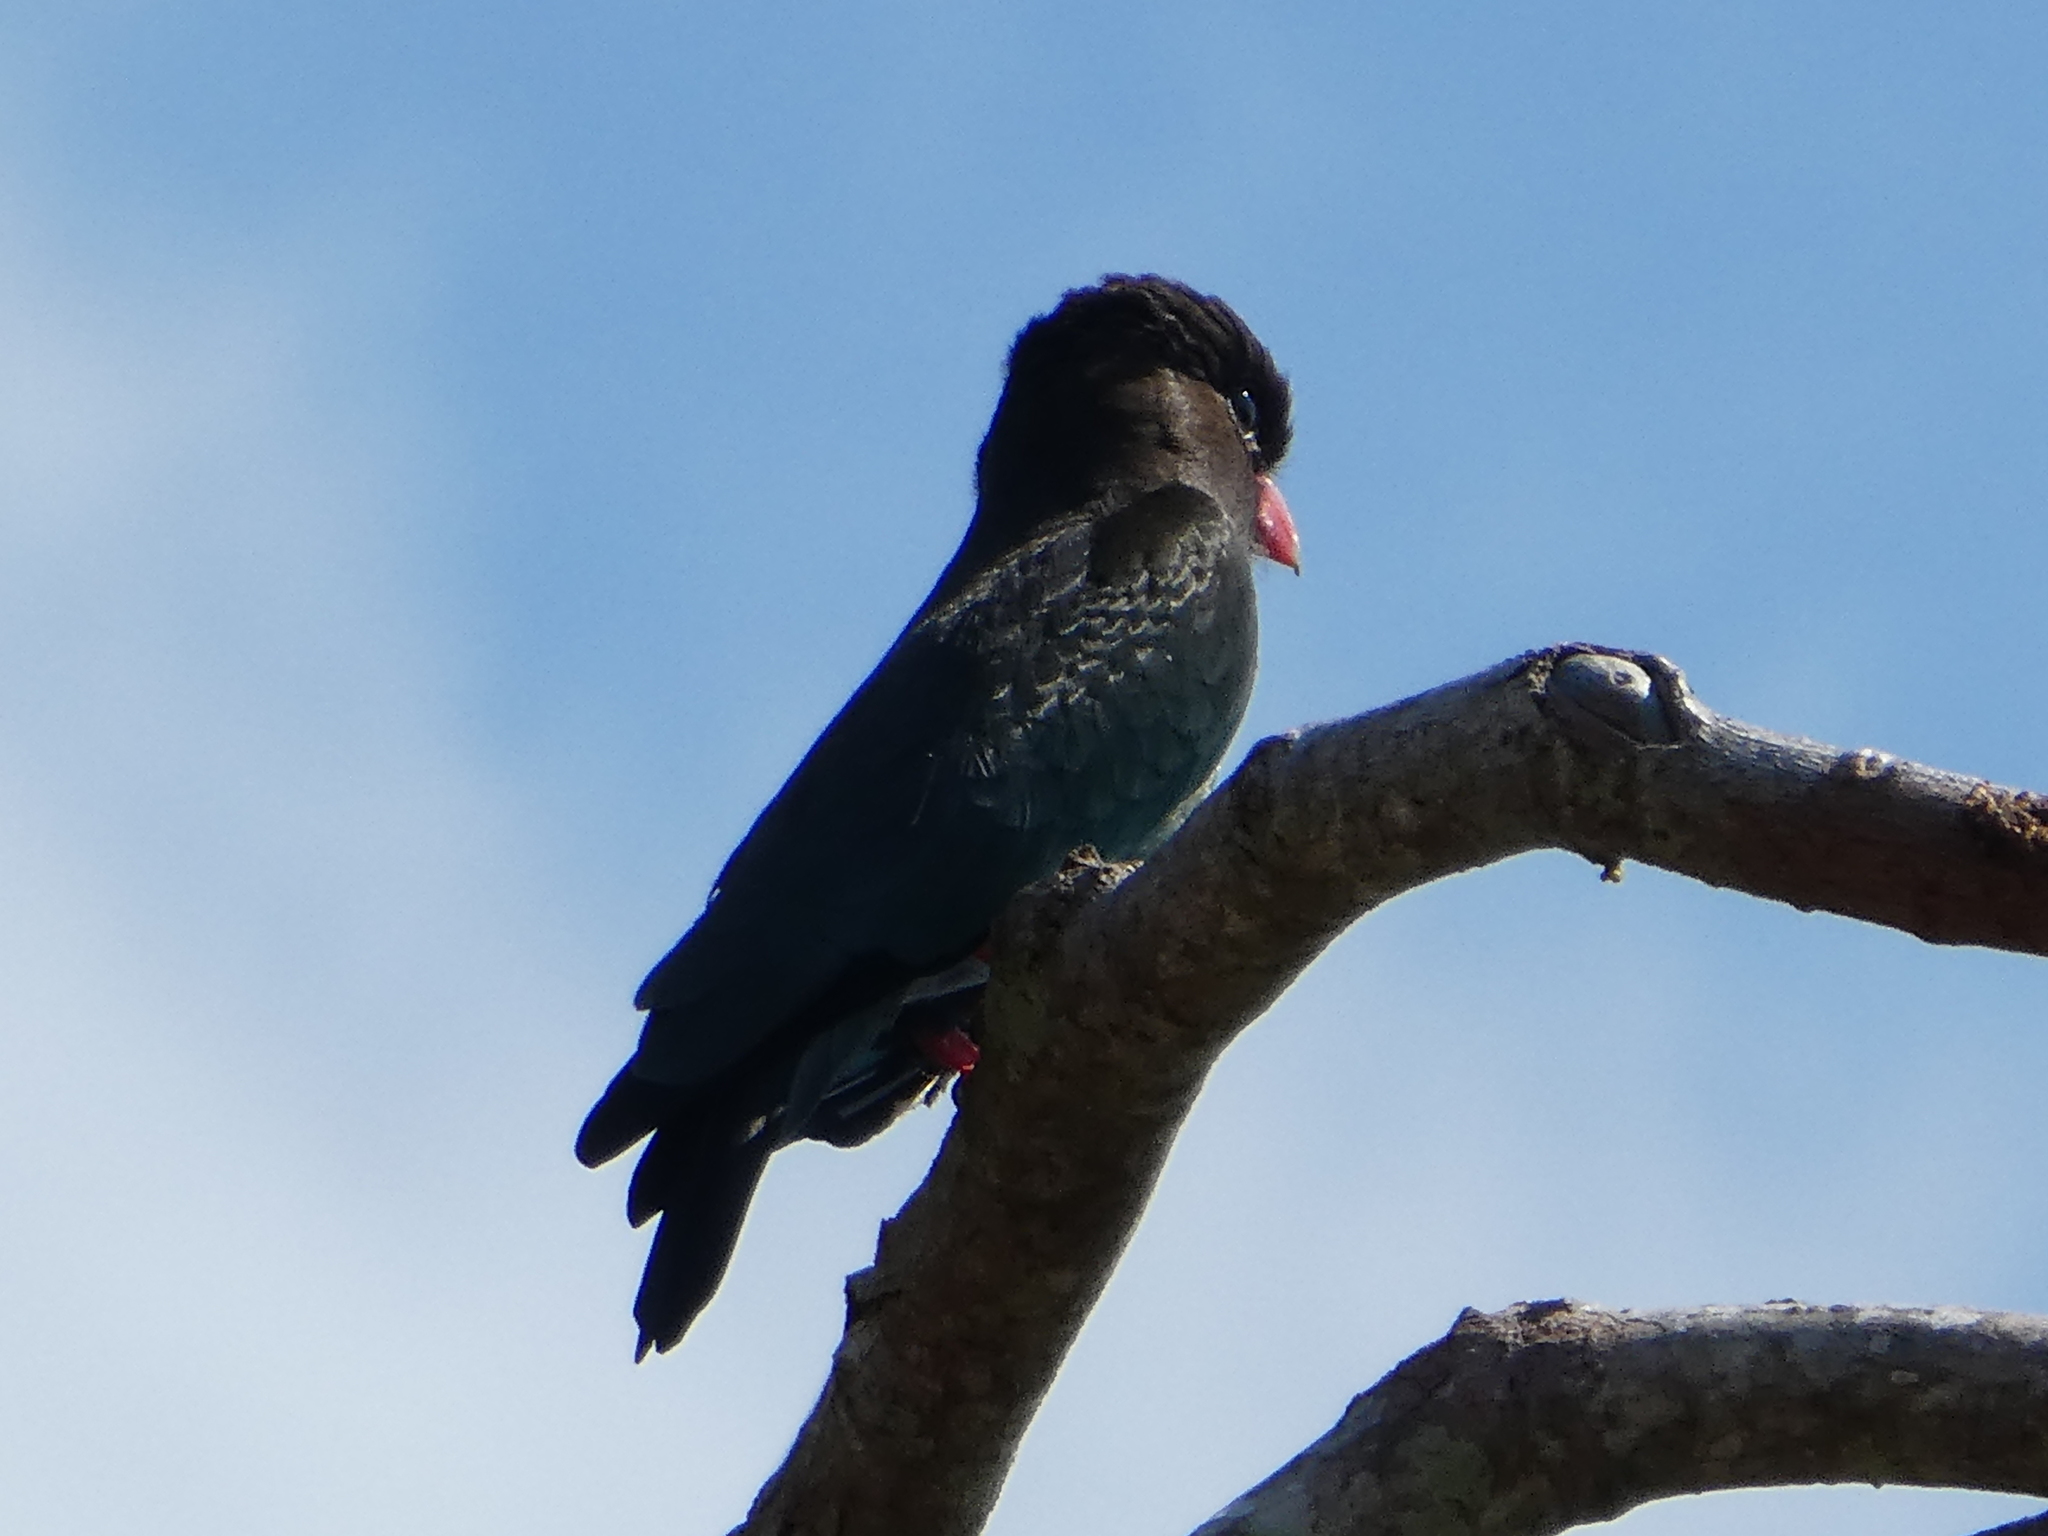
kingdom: Animalia
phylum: Chordata
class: Aves
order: Coraciiformes
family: Coraciidae
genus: Eurystomus
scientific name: Eurystomus orientalis
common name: Oriental dollarbird
